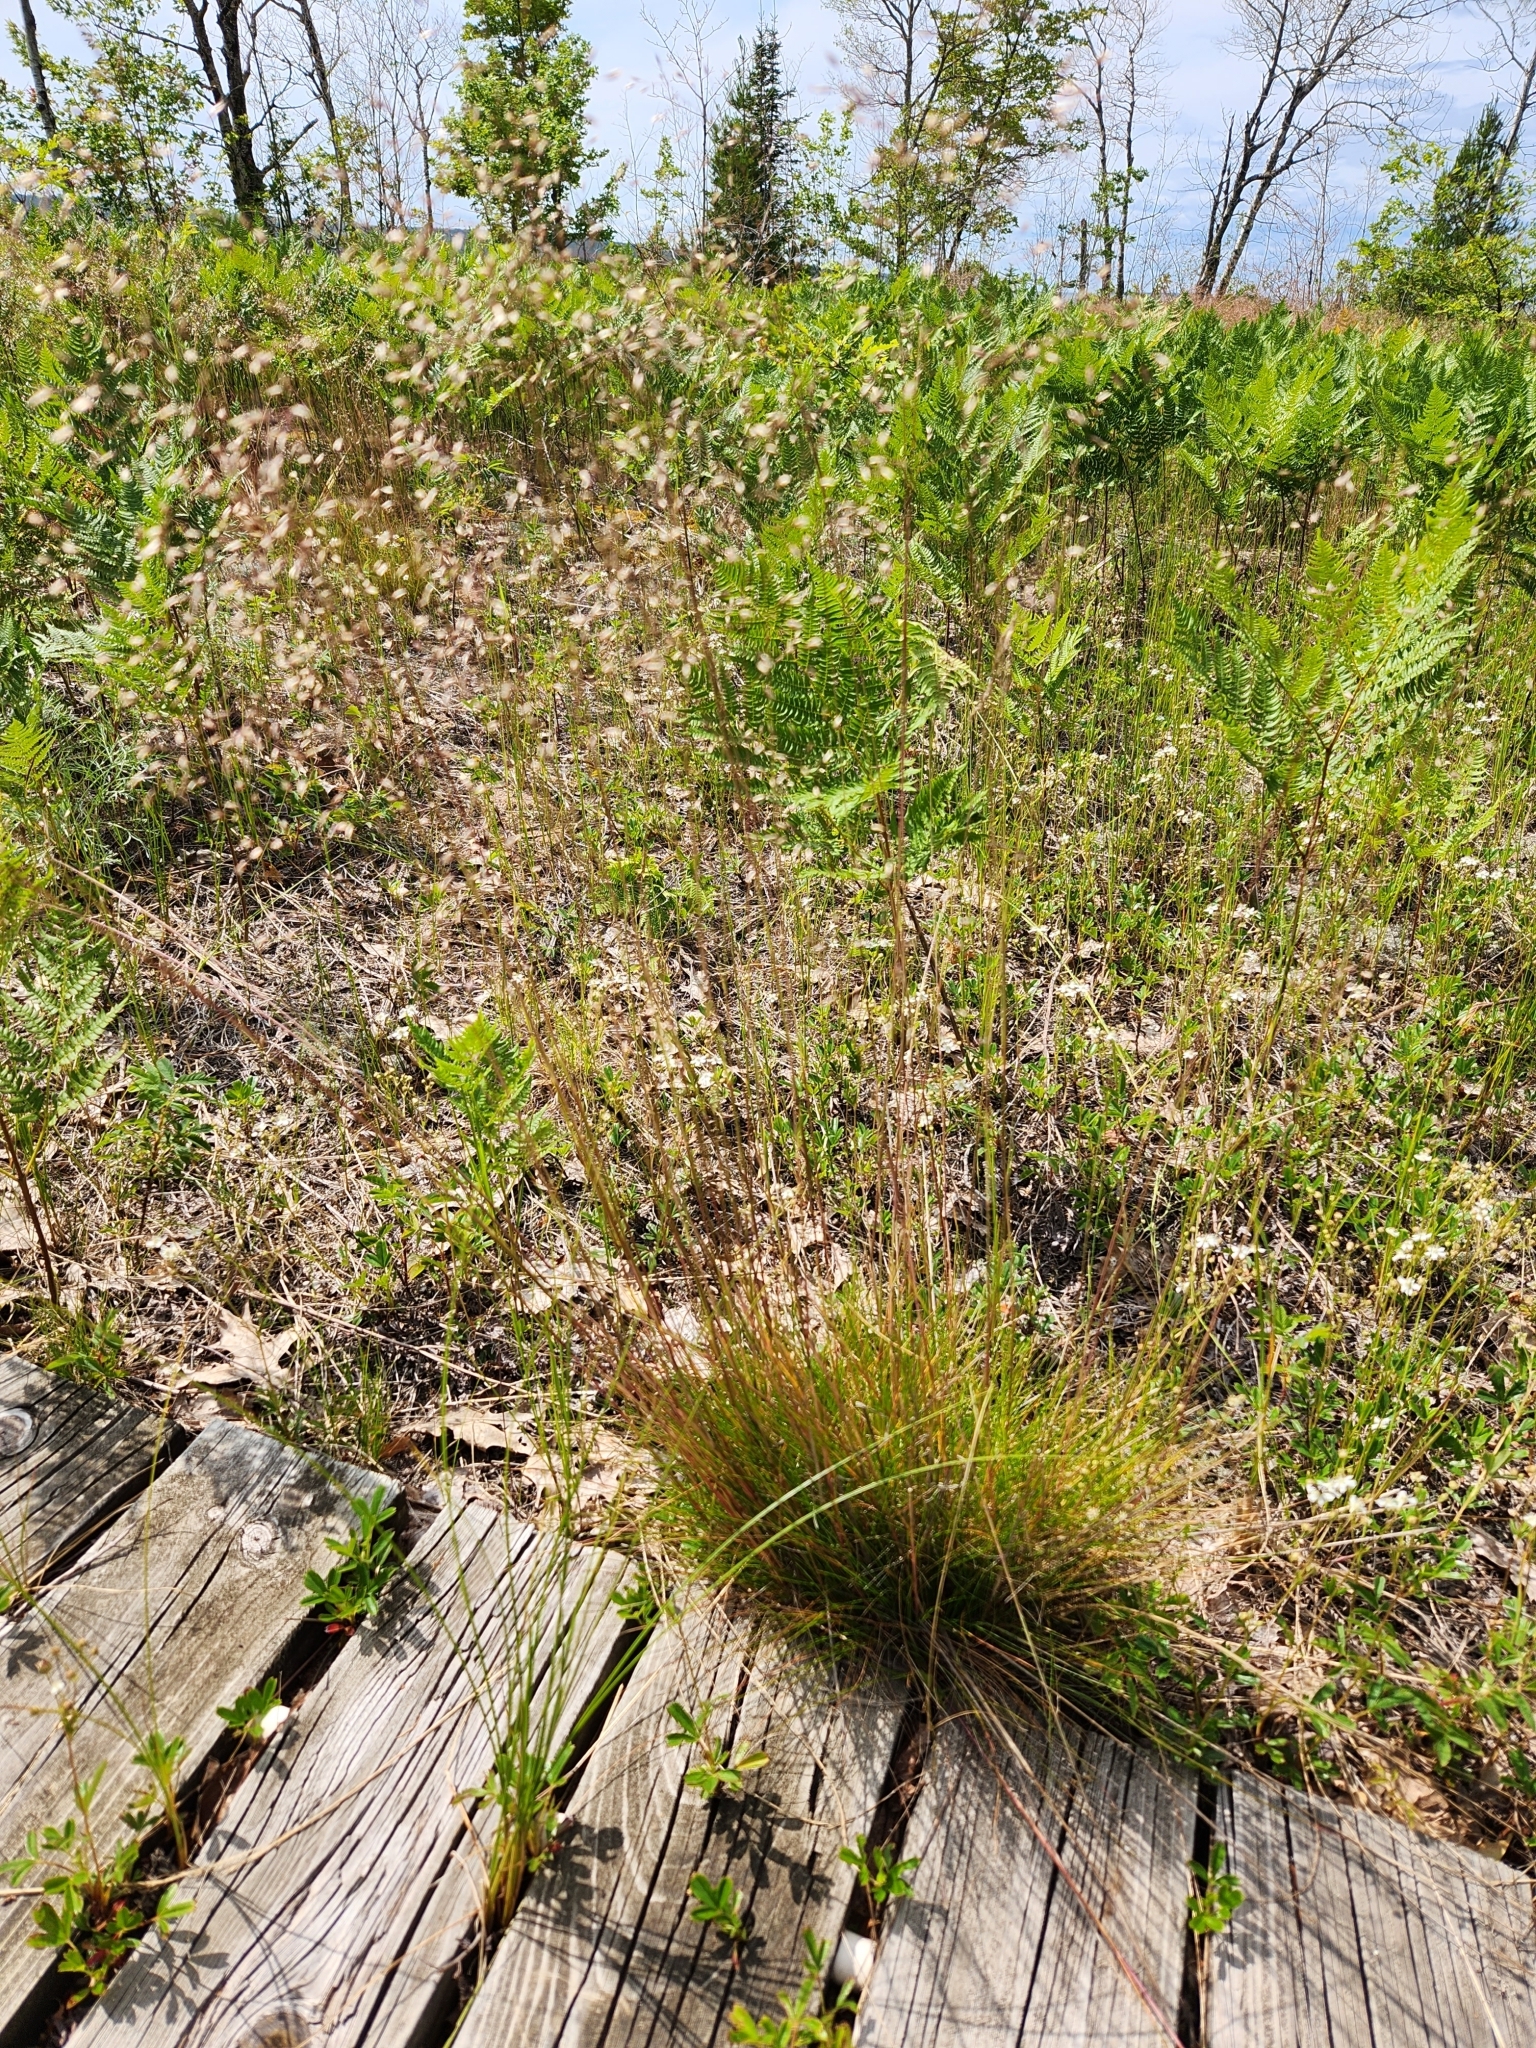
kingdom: Plantae
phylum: Tracheophyta
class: Liliopsida
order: Poales
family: Poaceae
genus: Avenella
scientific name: Avenella flexuosa
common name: Wavy hairgrass
